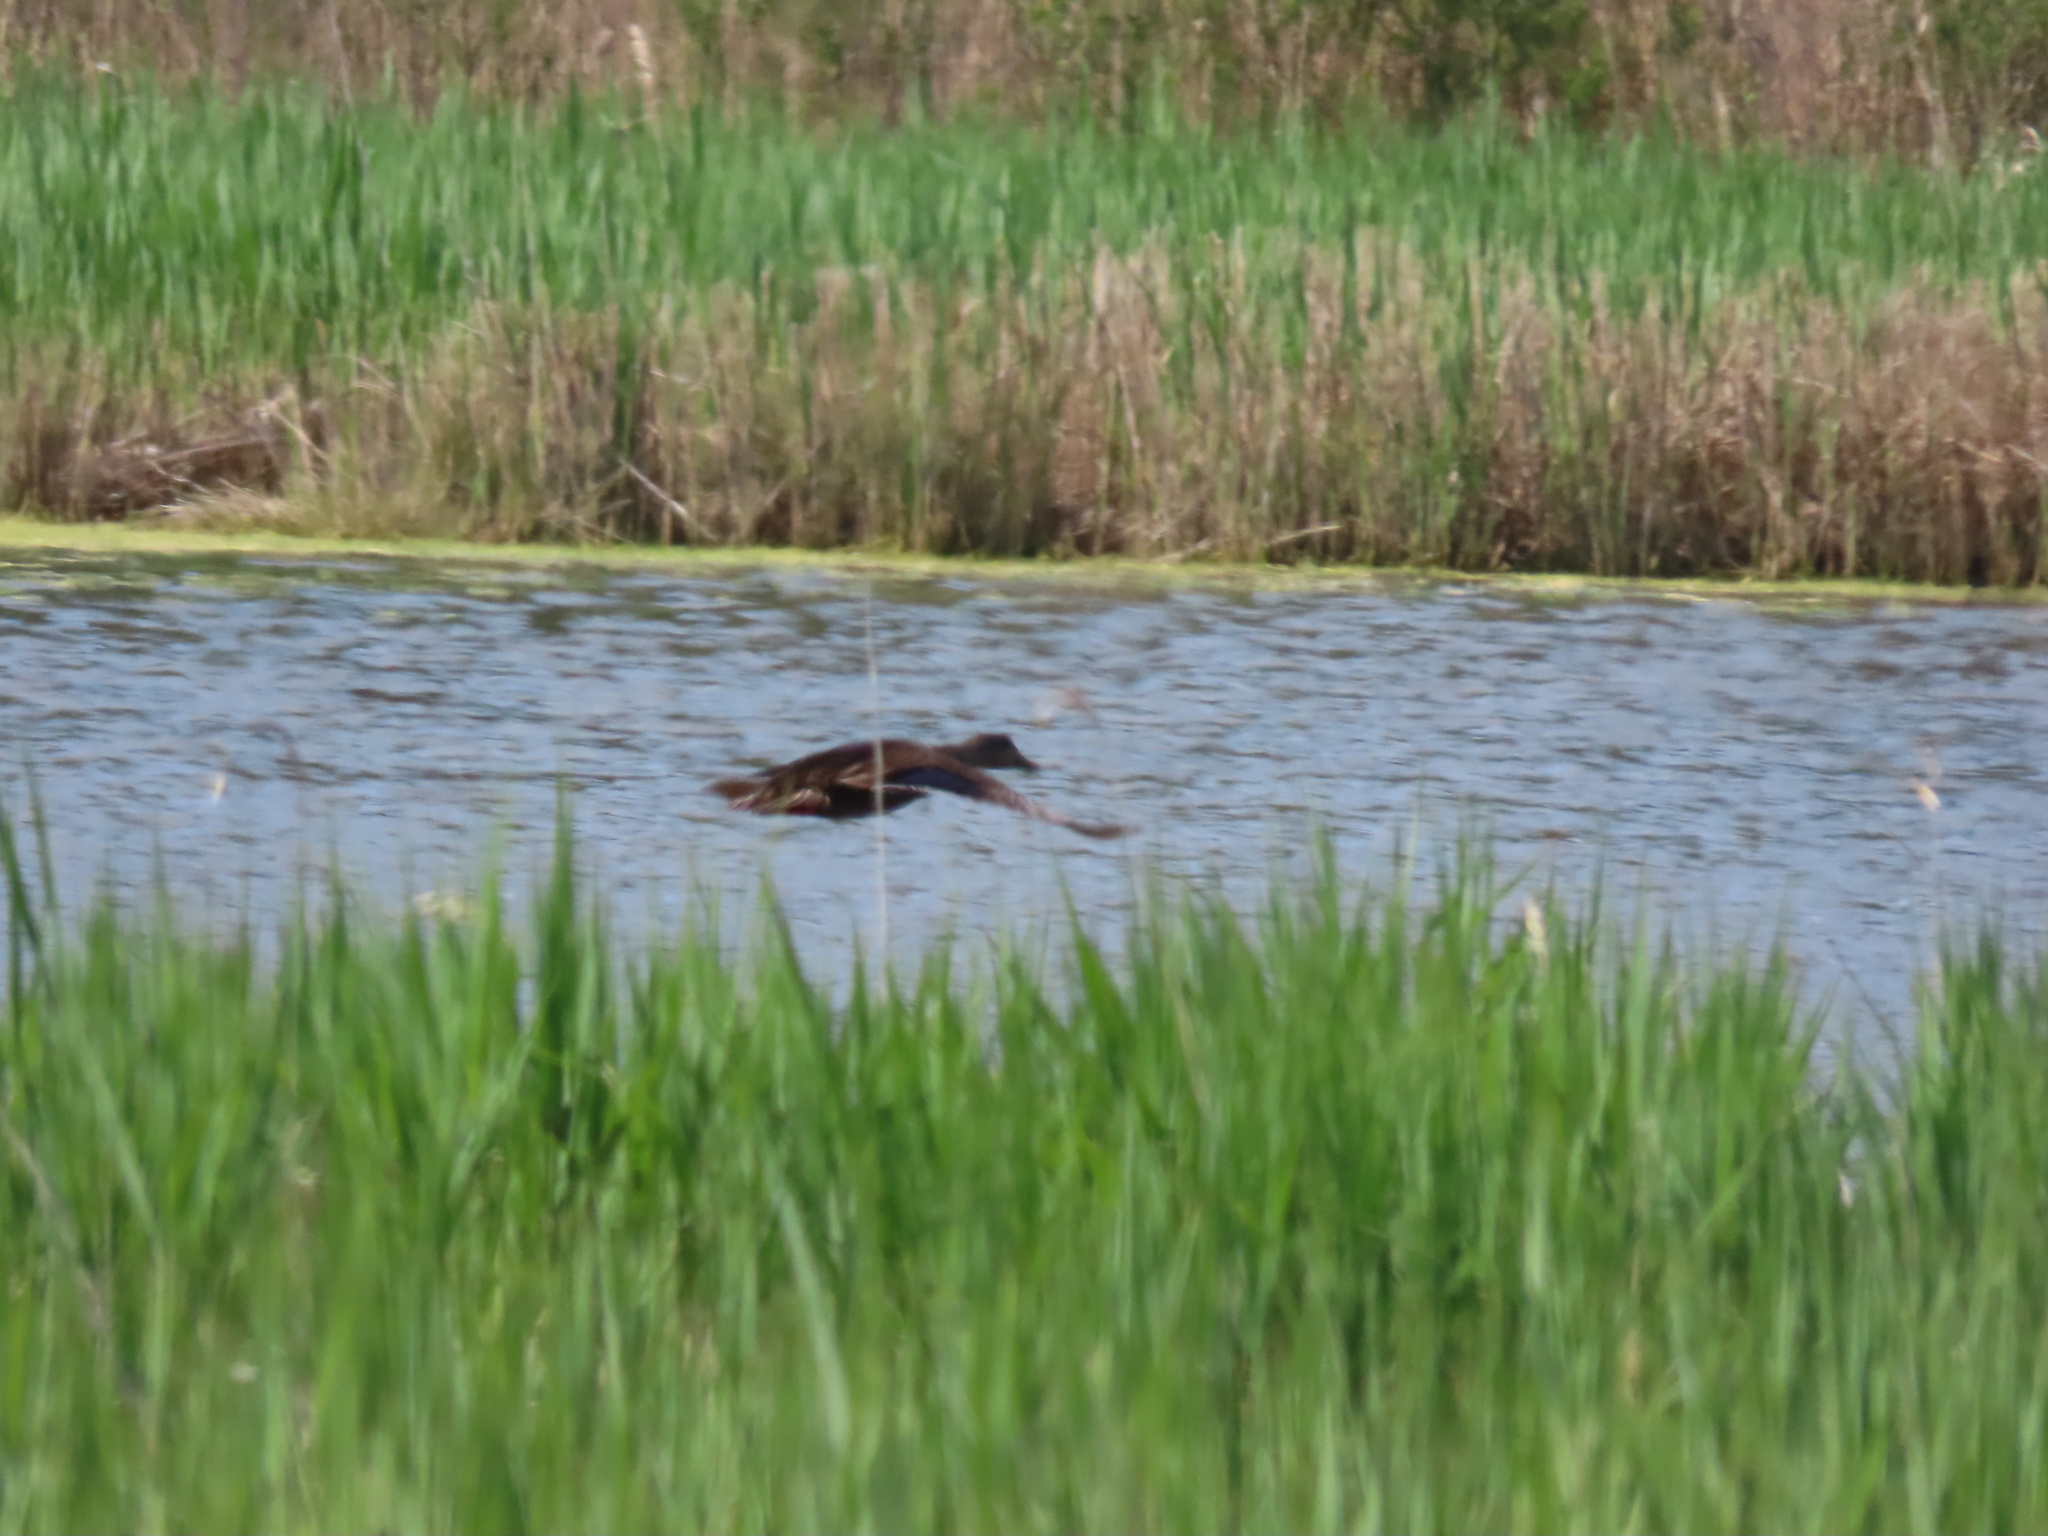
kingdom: Animalia
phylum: Chordata
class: Aves
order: Anseriformes
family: Anatidae
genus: Anas
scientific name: Anas rubripes
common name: American black duck
